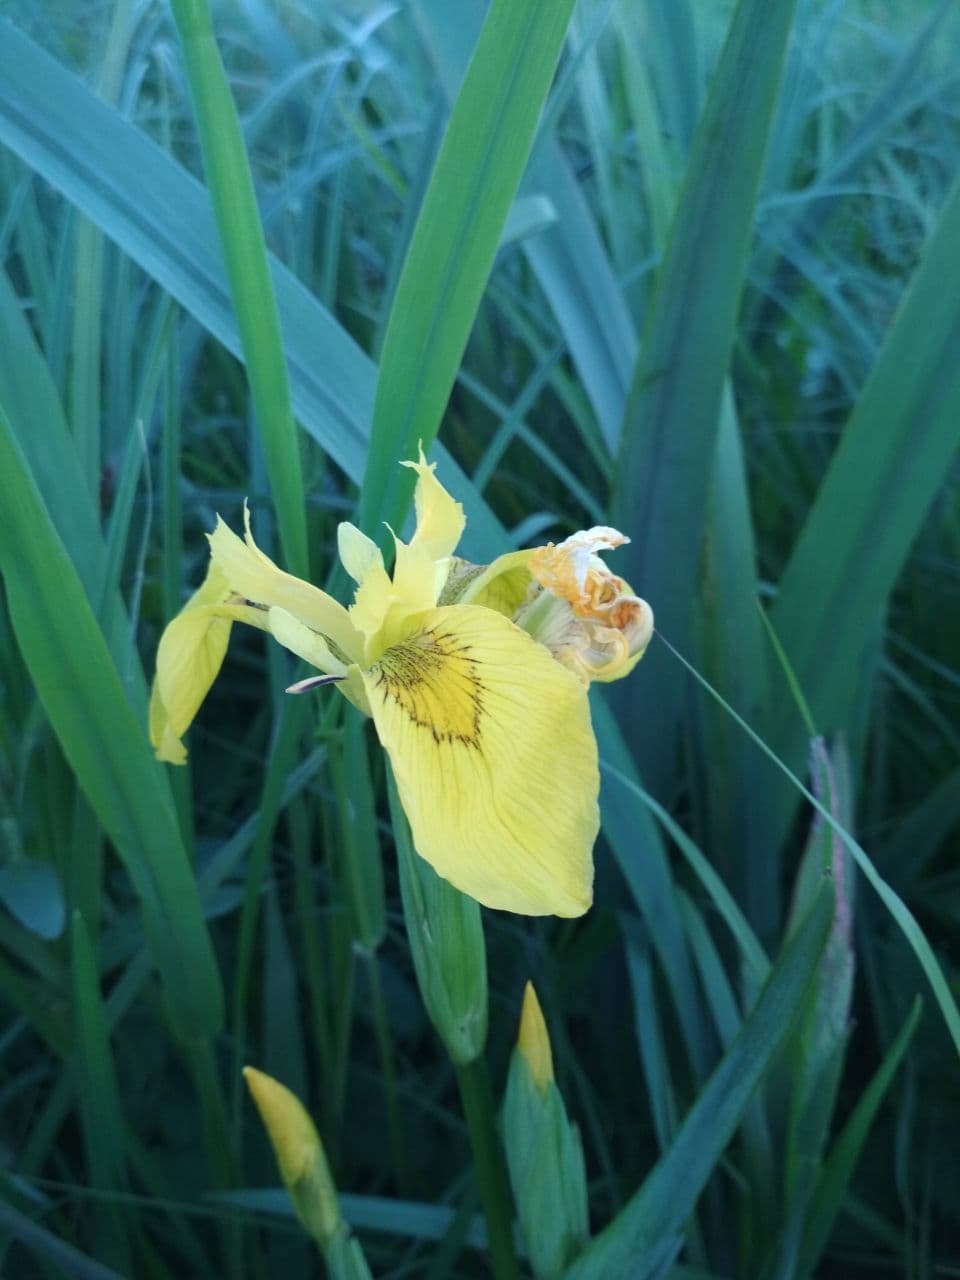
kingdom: Plantae
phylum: Tracheophyta
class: Liliopsida
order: Asparagales
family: Iridaceae
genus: Iris
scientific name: Iris pseudacorus
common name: Yellow flag
